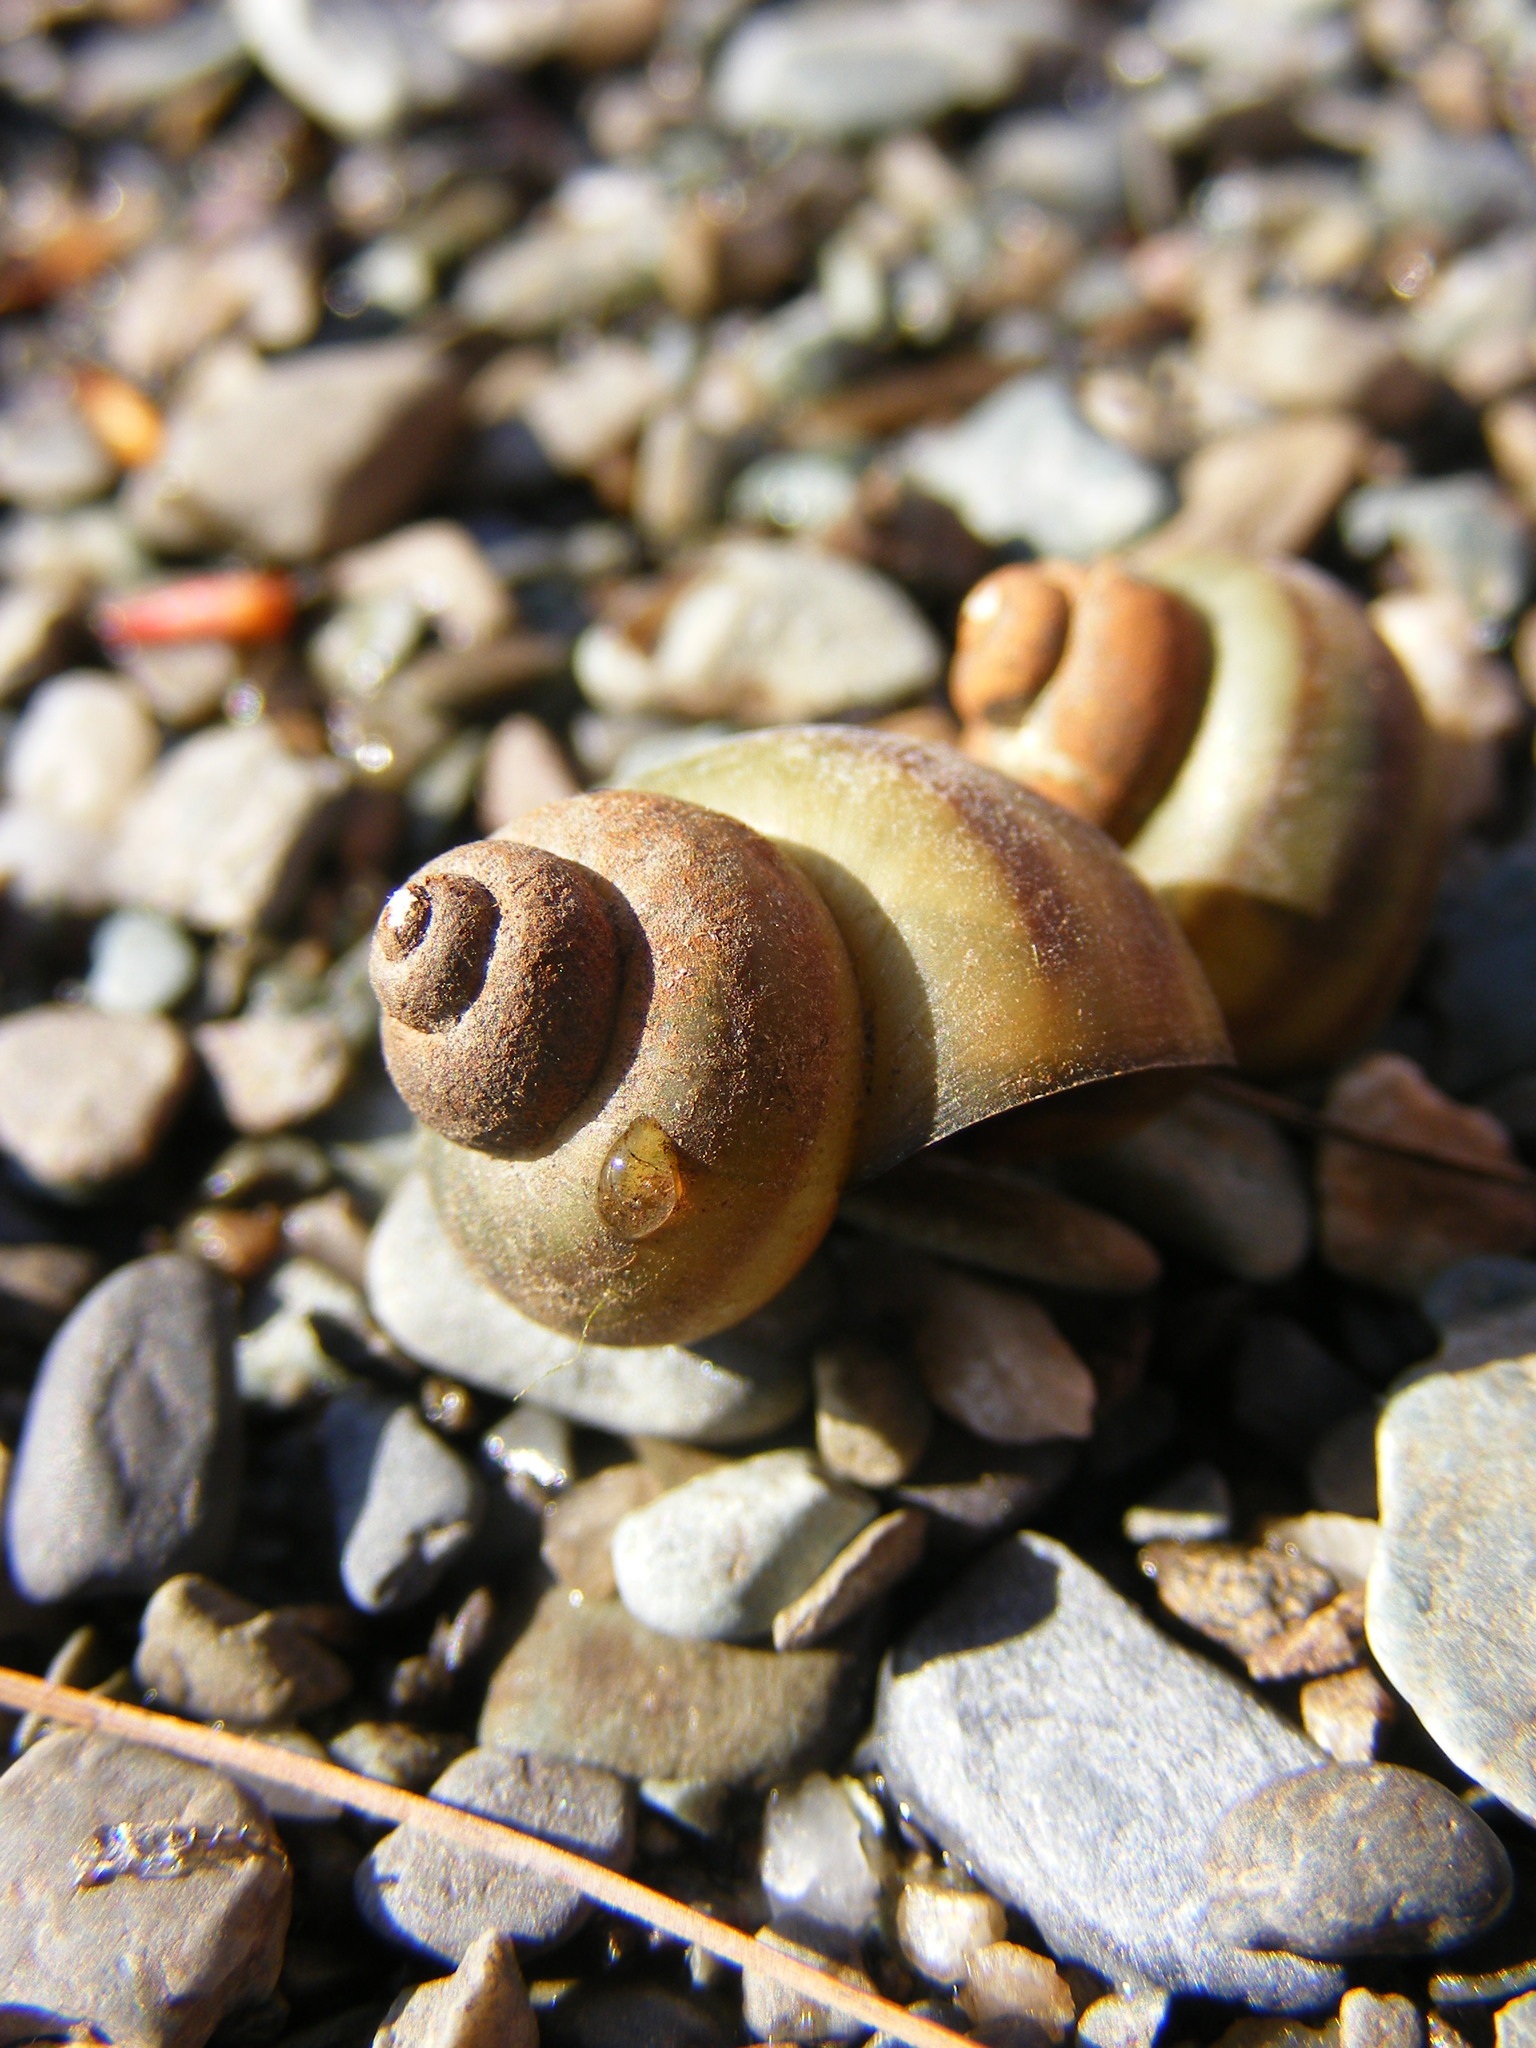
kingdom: Animalia
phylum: Mollusca
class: Gastropoda
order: Architaenioglossa
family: Viviparidae
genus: Callinina
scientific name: Callinina georgiana
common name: Banded mystery snail
